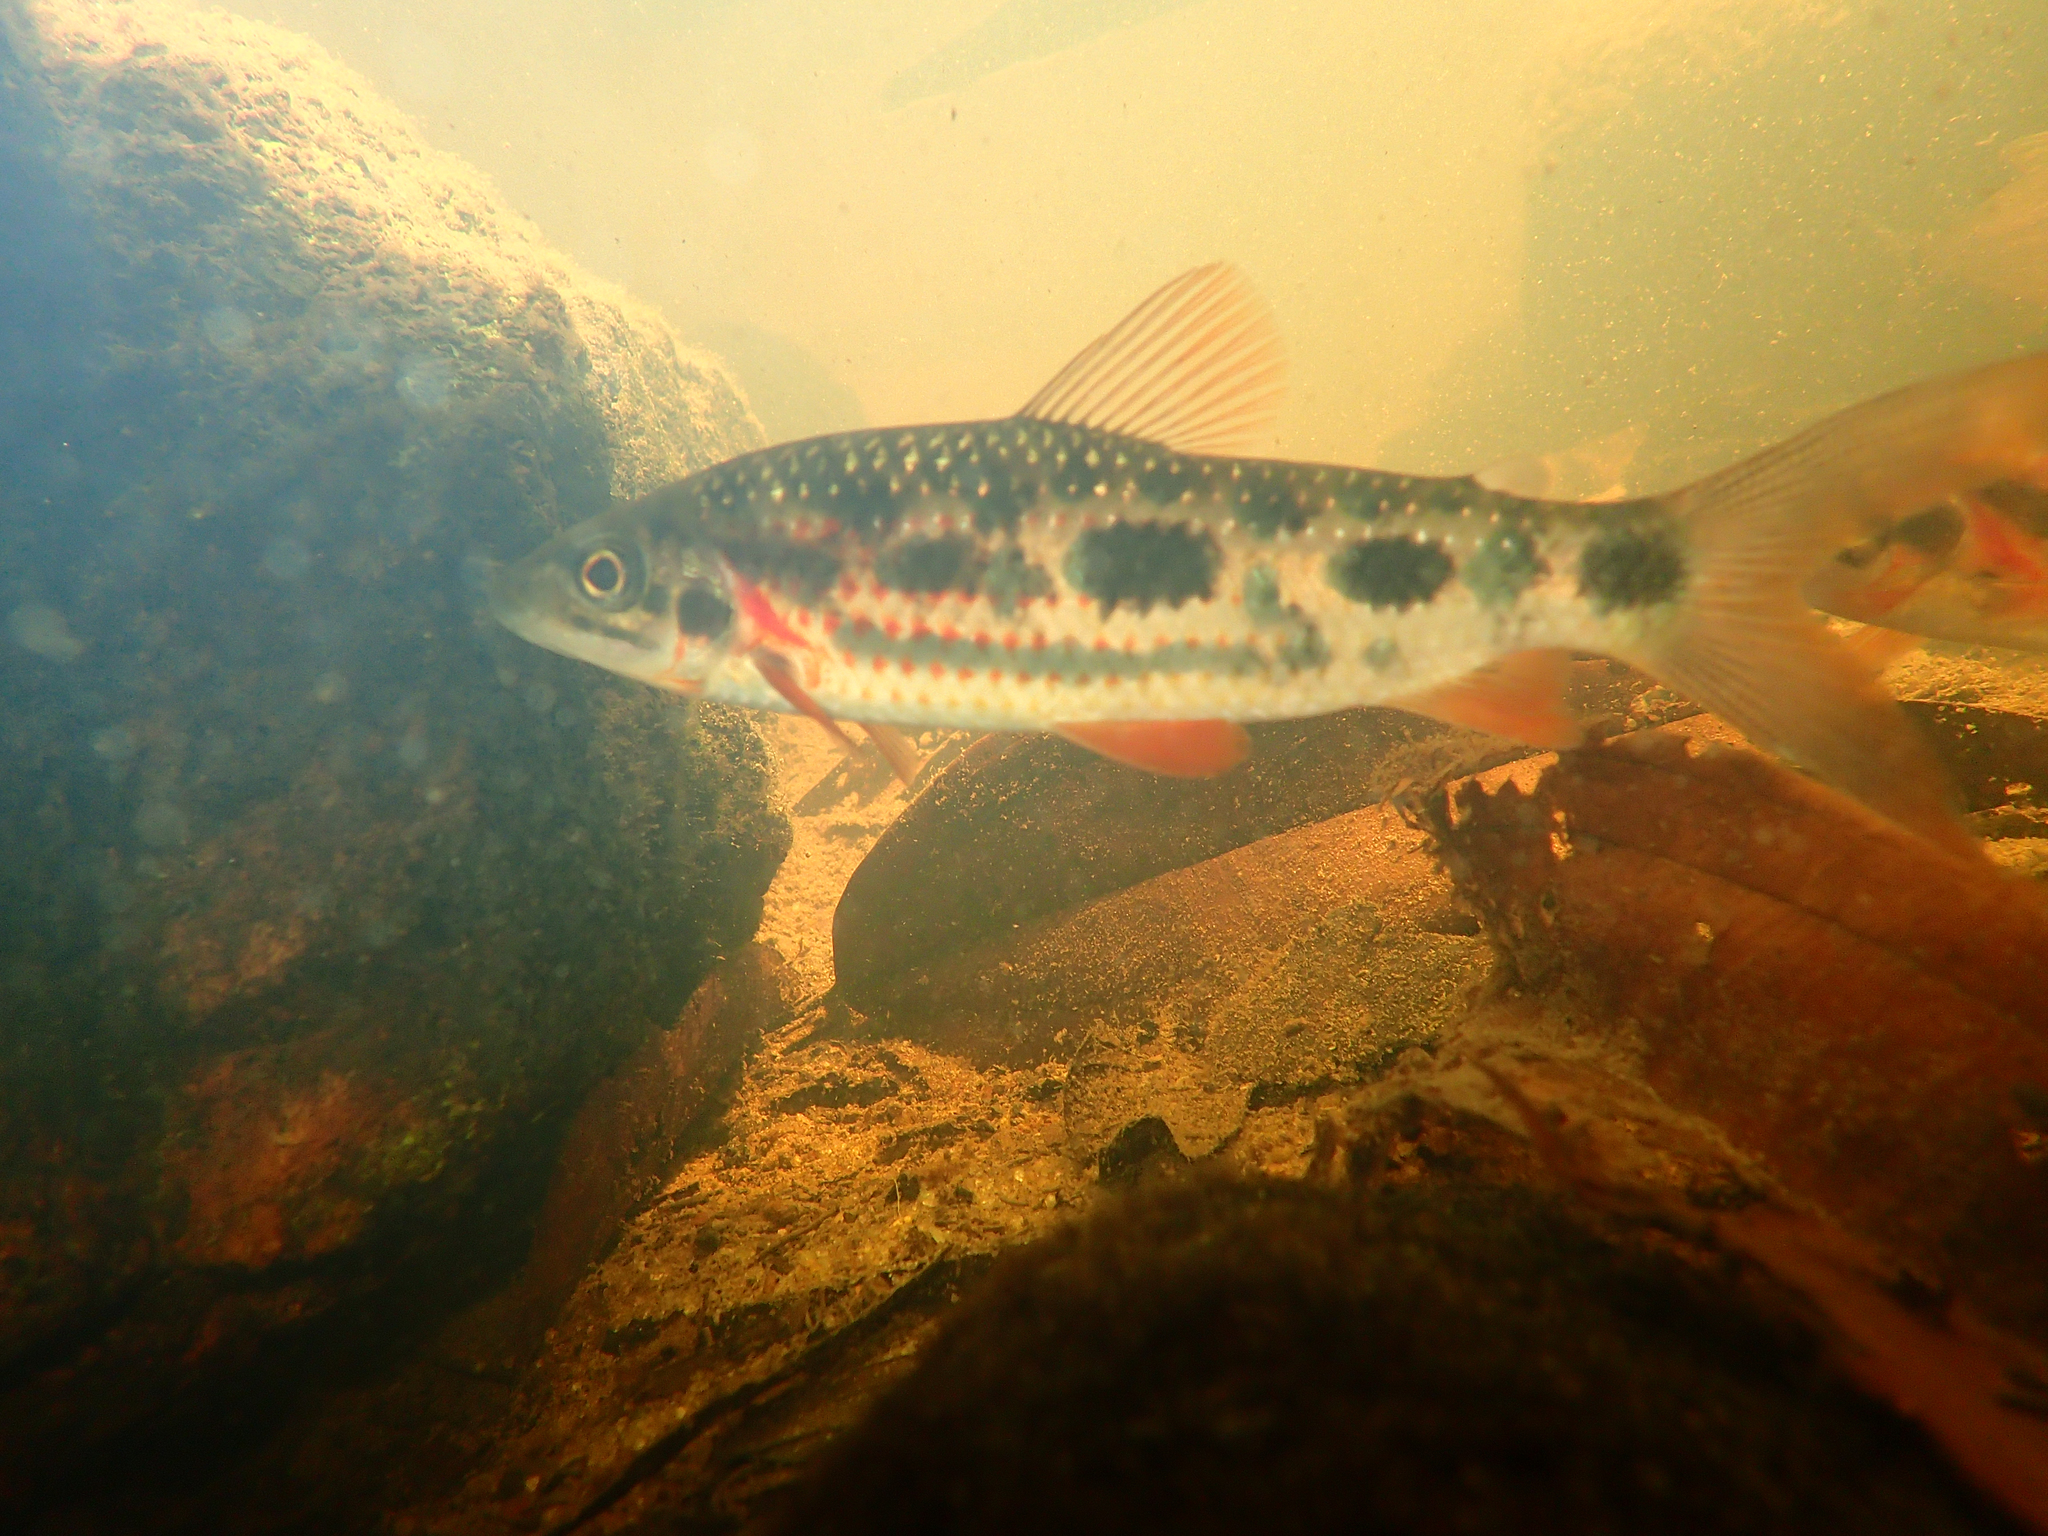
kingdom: Animalia
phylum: Chordata
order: Characiformes
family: Anostomidae
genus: Leporinus
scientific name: Leporinus granti
